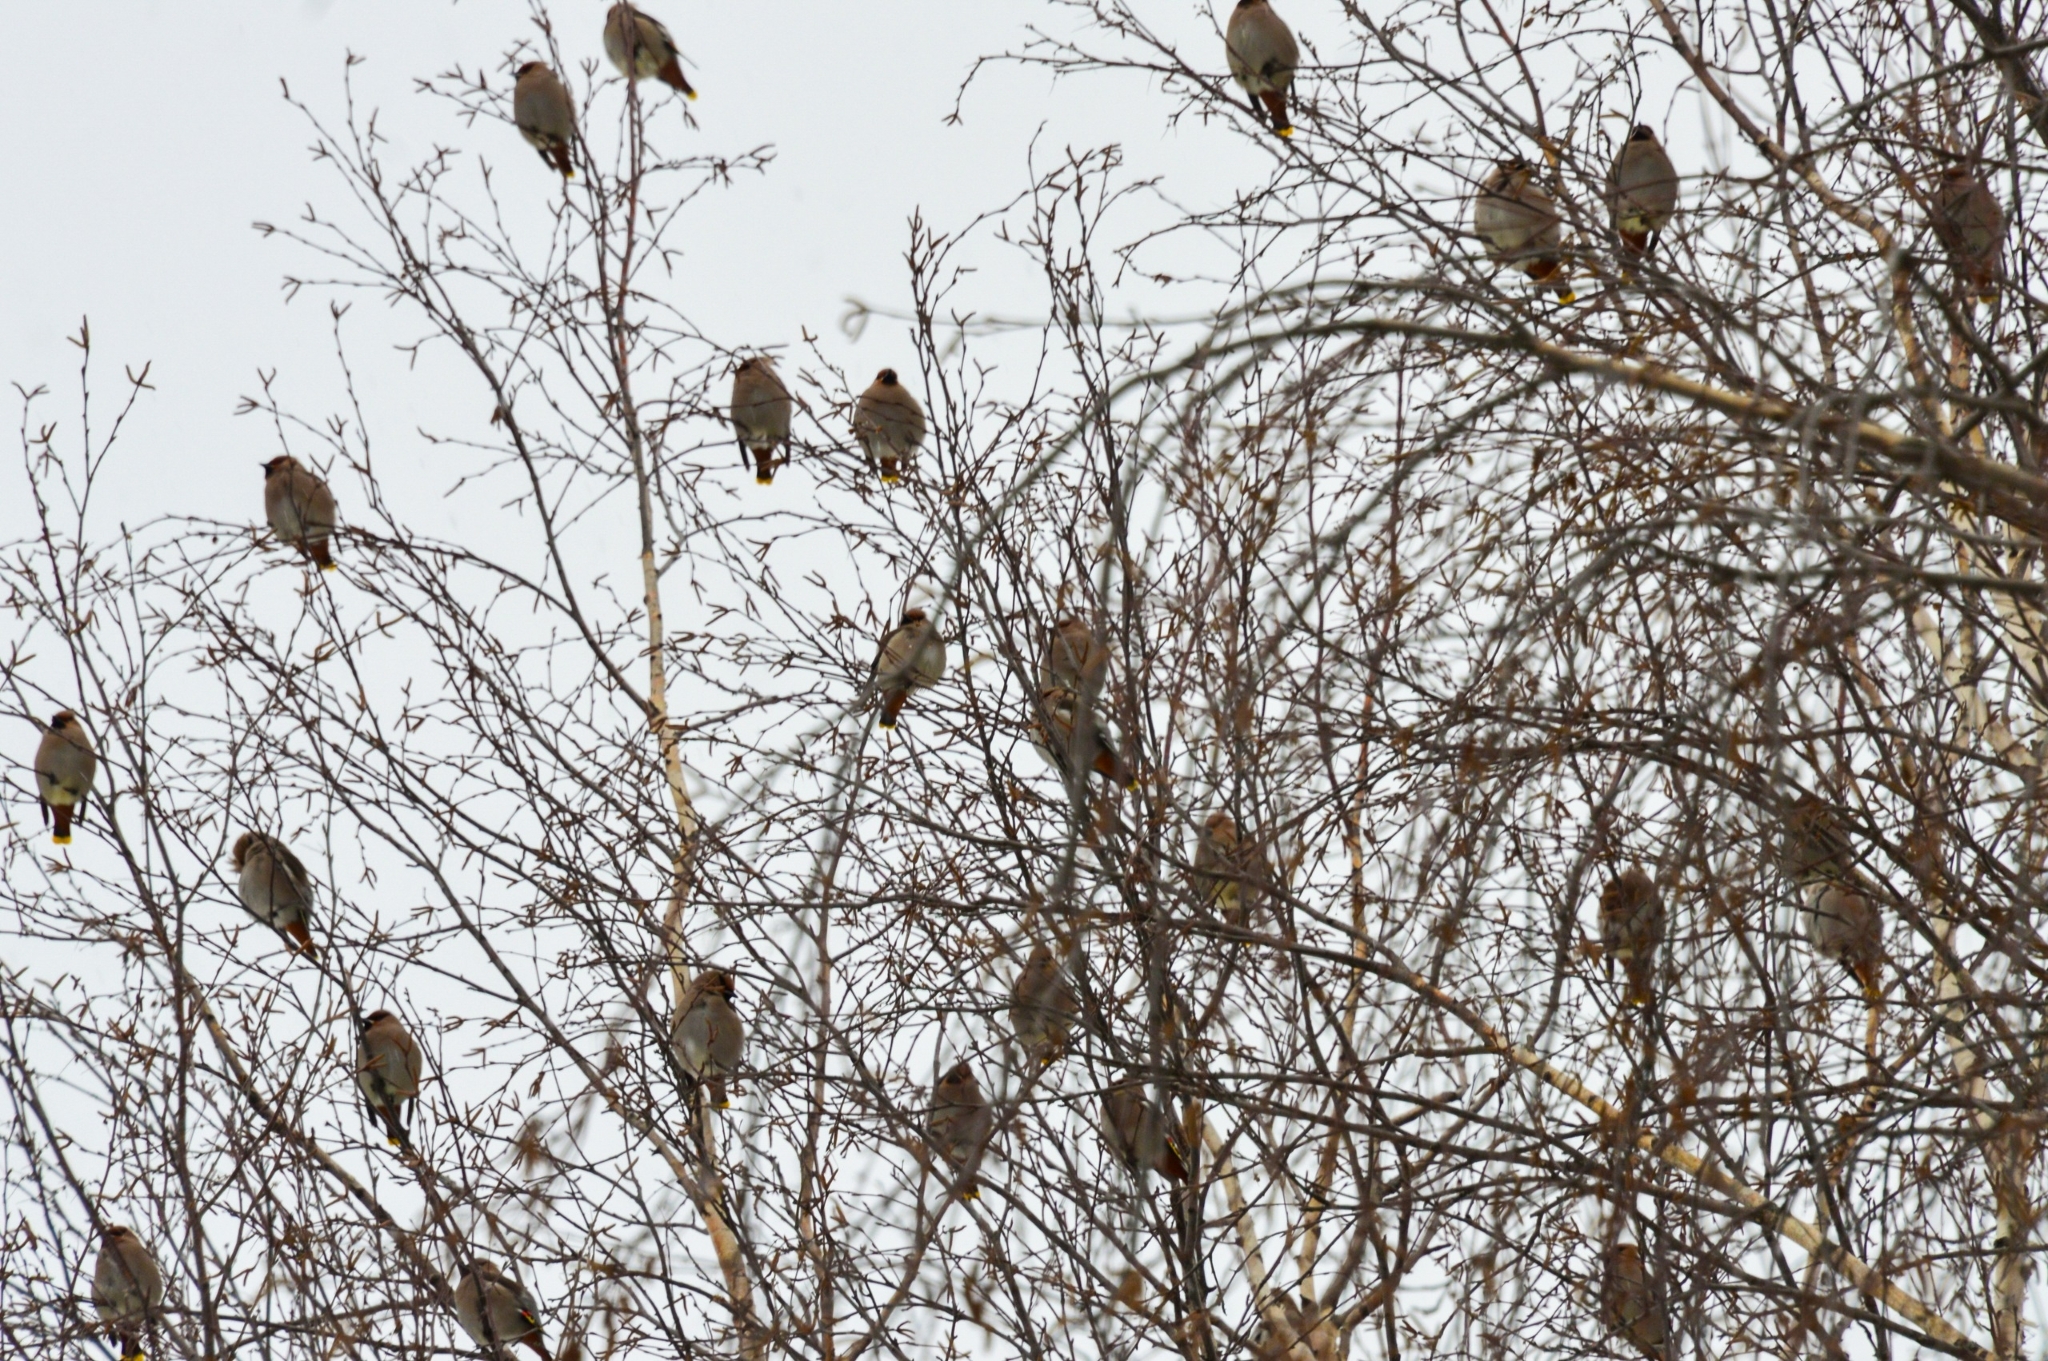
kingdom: Animalia
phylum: Chordata
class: Aves
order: Passeriformes
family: Bombycillidae
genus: Bombycilla
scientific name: Bombycilla garrulus
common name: Bohemian waxwing
